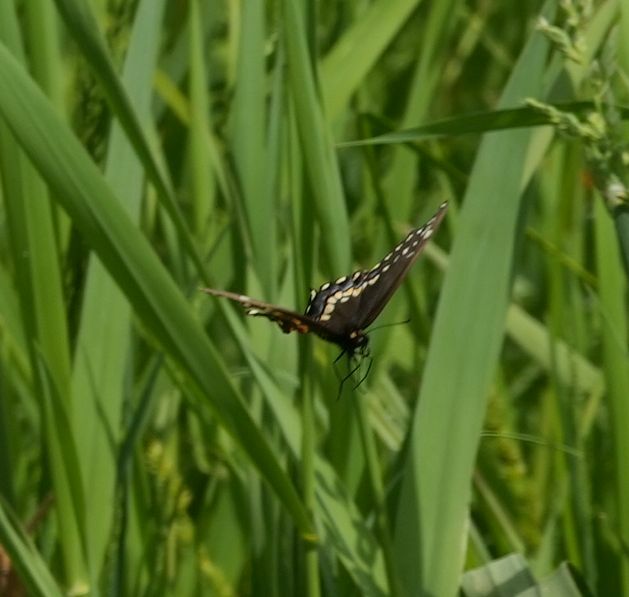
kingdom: Animalia
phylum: Arthropoda
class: Insecta
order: Lepidoptera
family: Papilionidae
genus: Papilio
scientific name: Papilio polyxenes
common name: Black swallowtail
